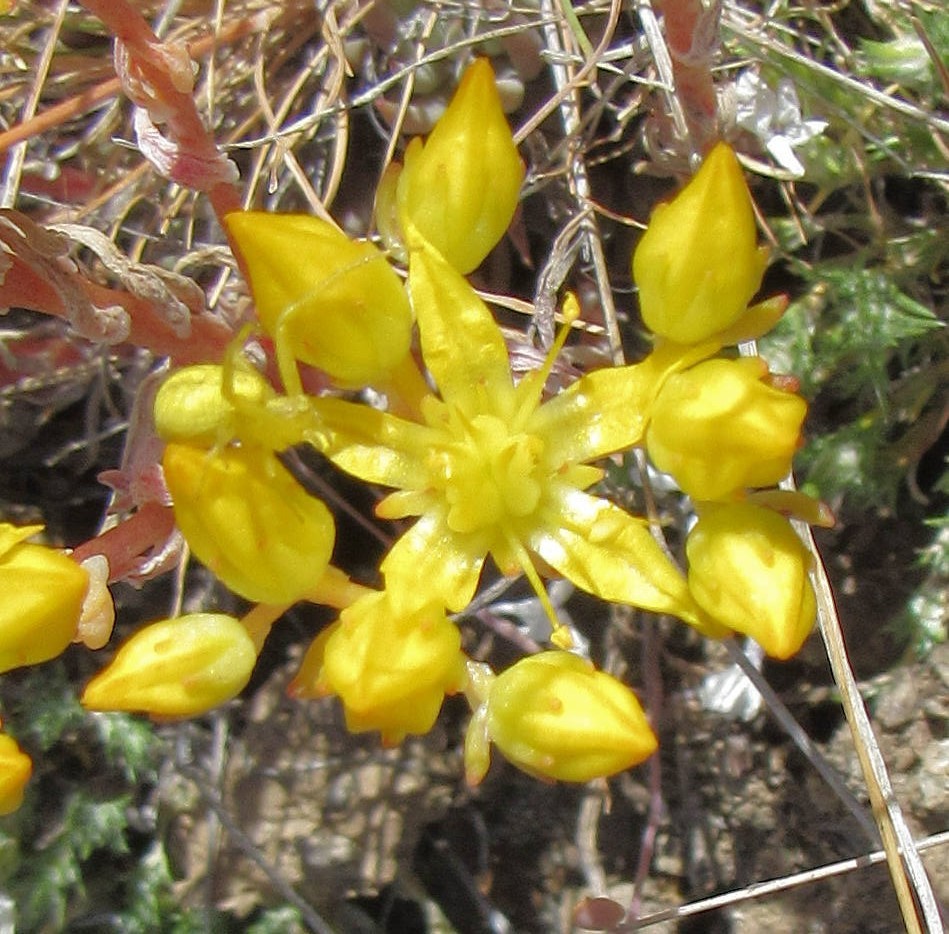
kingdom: Plantae
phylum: Tracheophyta
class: Magnoliopsida
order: Saxifragales
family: Crassulaceae
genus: Sedum
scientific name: Sedum lanceolatum
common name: Common stonecrop
